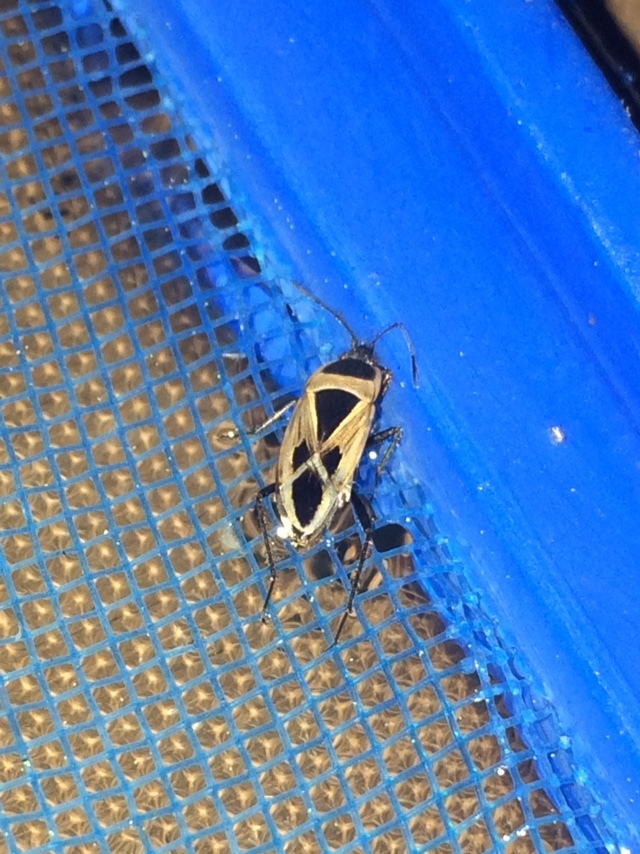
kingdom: Animalia
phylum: Arthropoda
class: Insecta
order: Hemiptera
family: Rhyparochromidae
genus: Xanthochilus
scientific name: Xanthochilus saturnius
